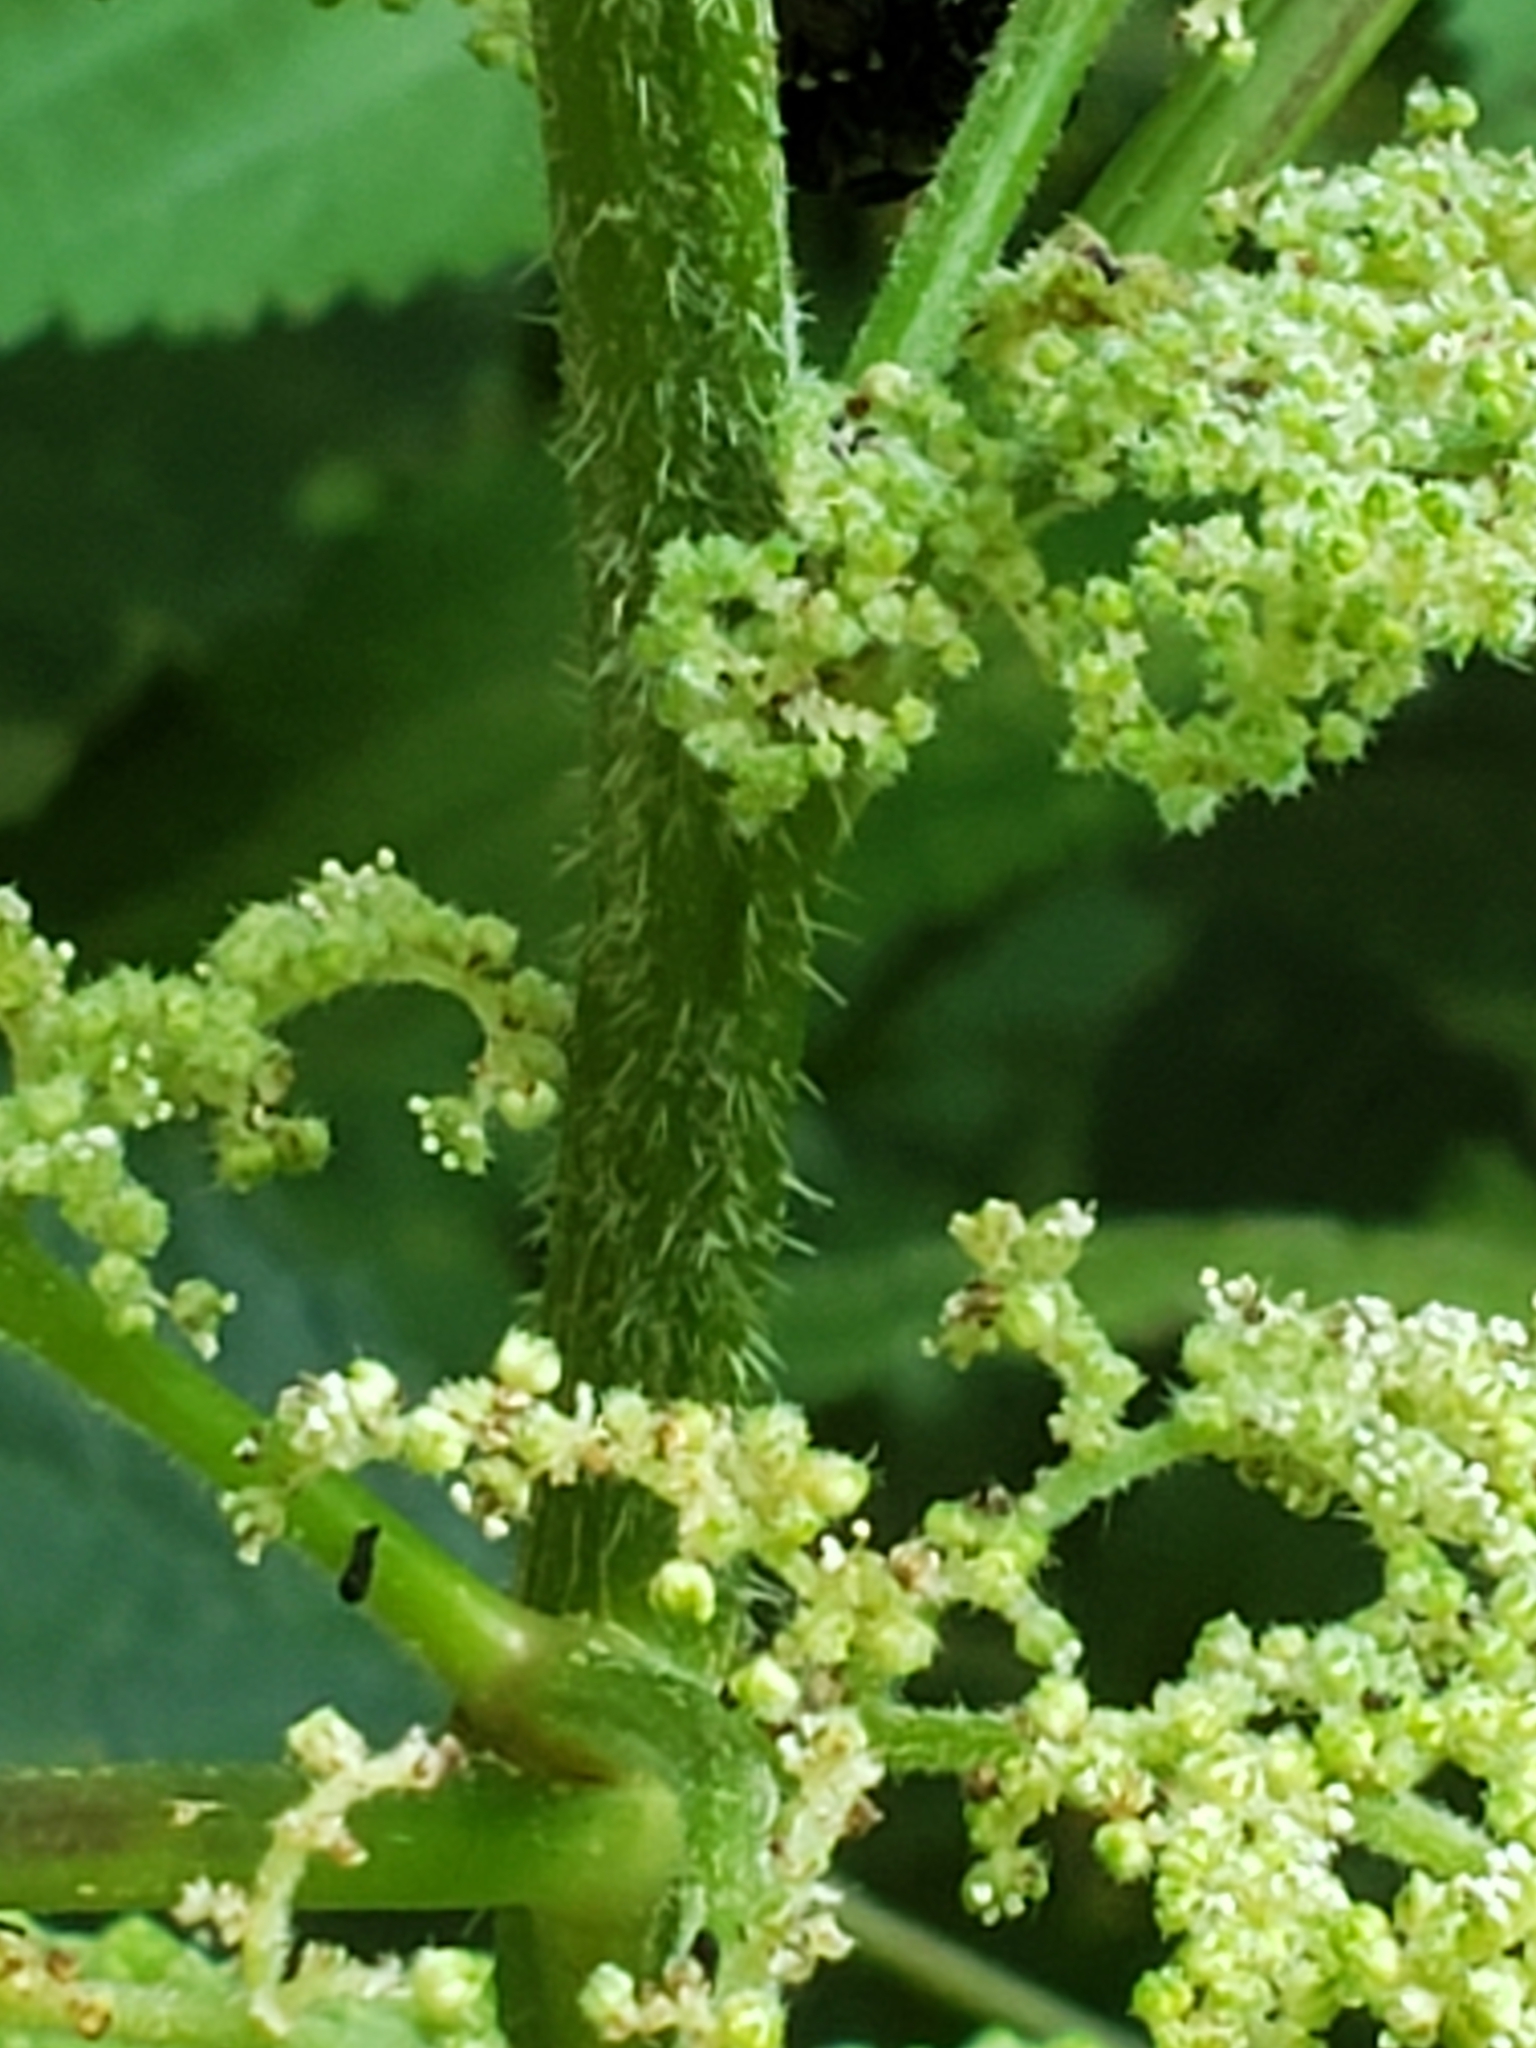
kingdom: Plantae
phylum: Tracheophyta
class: Magnoliopsida
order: Rosales
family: Urticaceae
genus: Laportea
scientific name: Laportea canadensis
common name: Canada nettle
